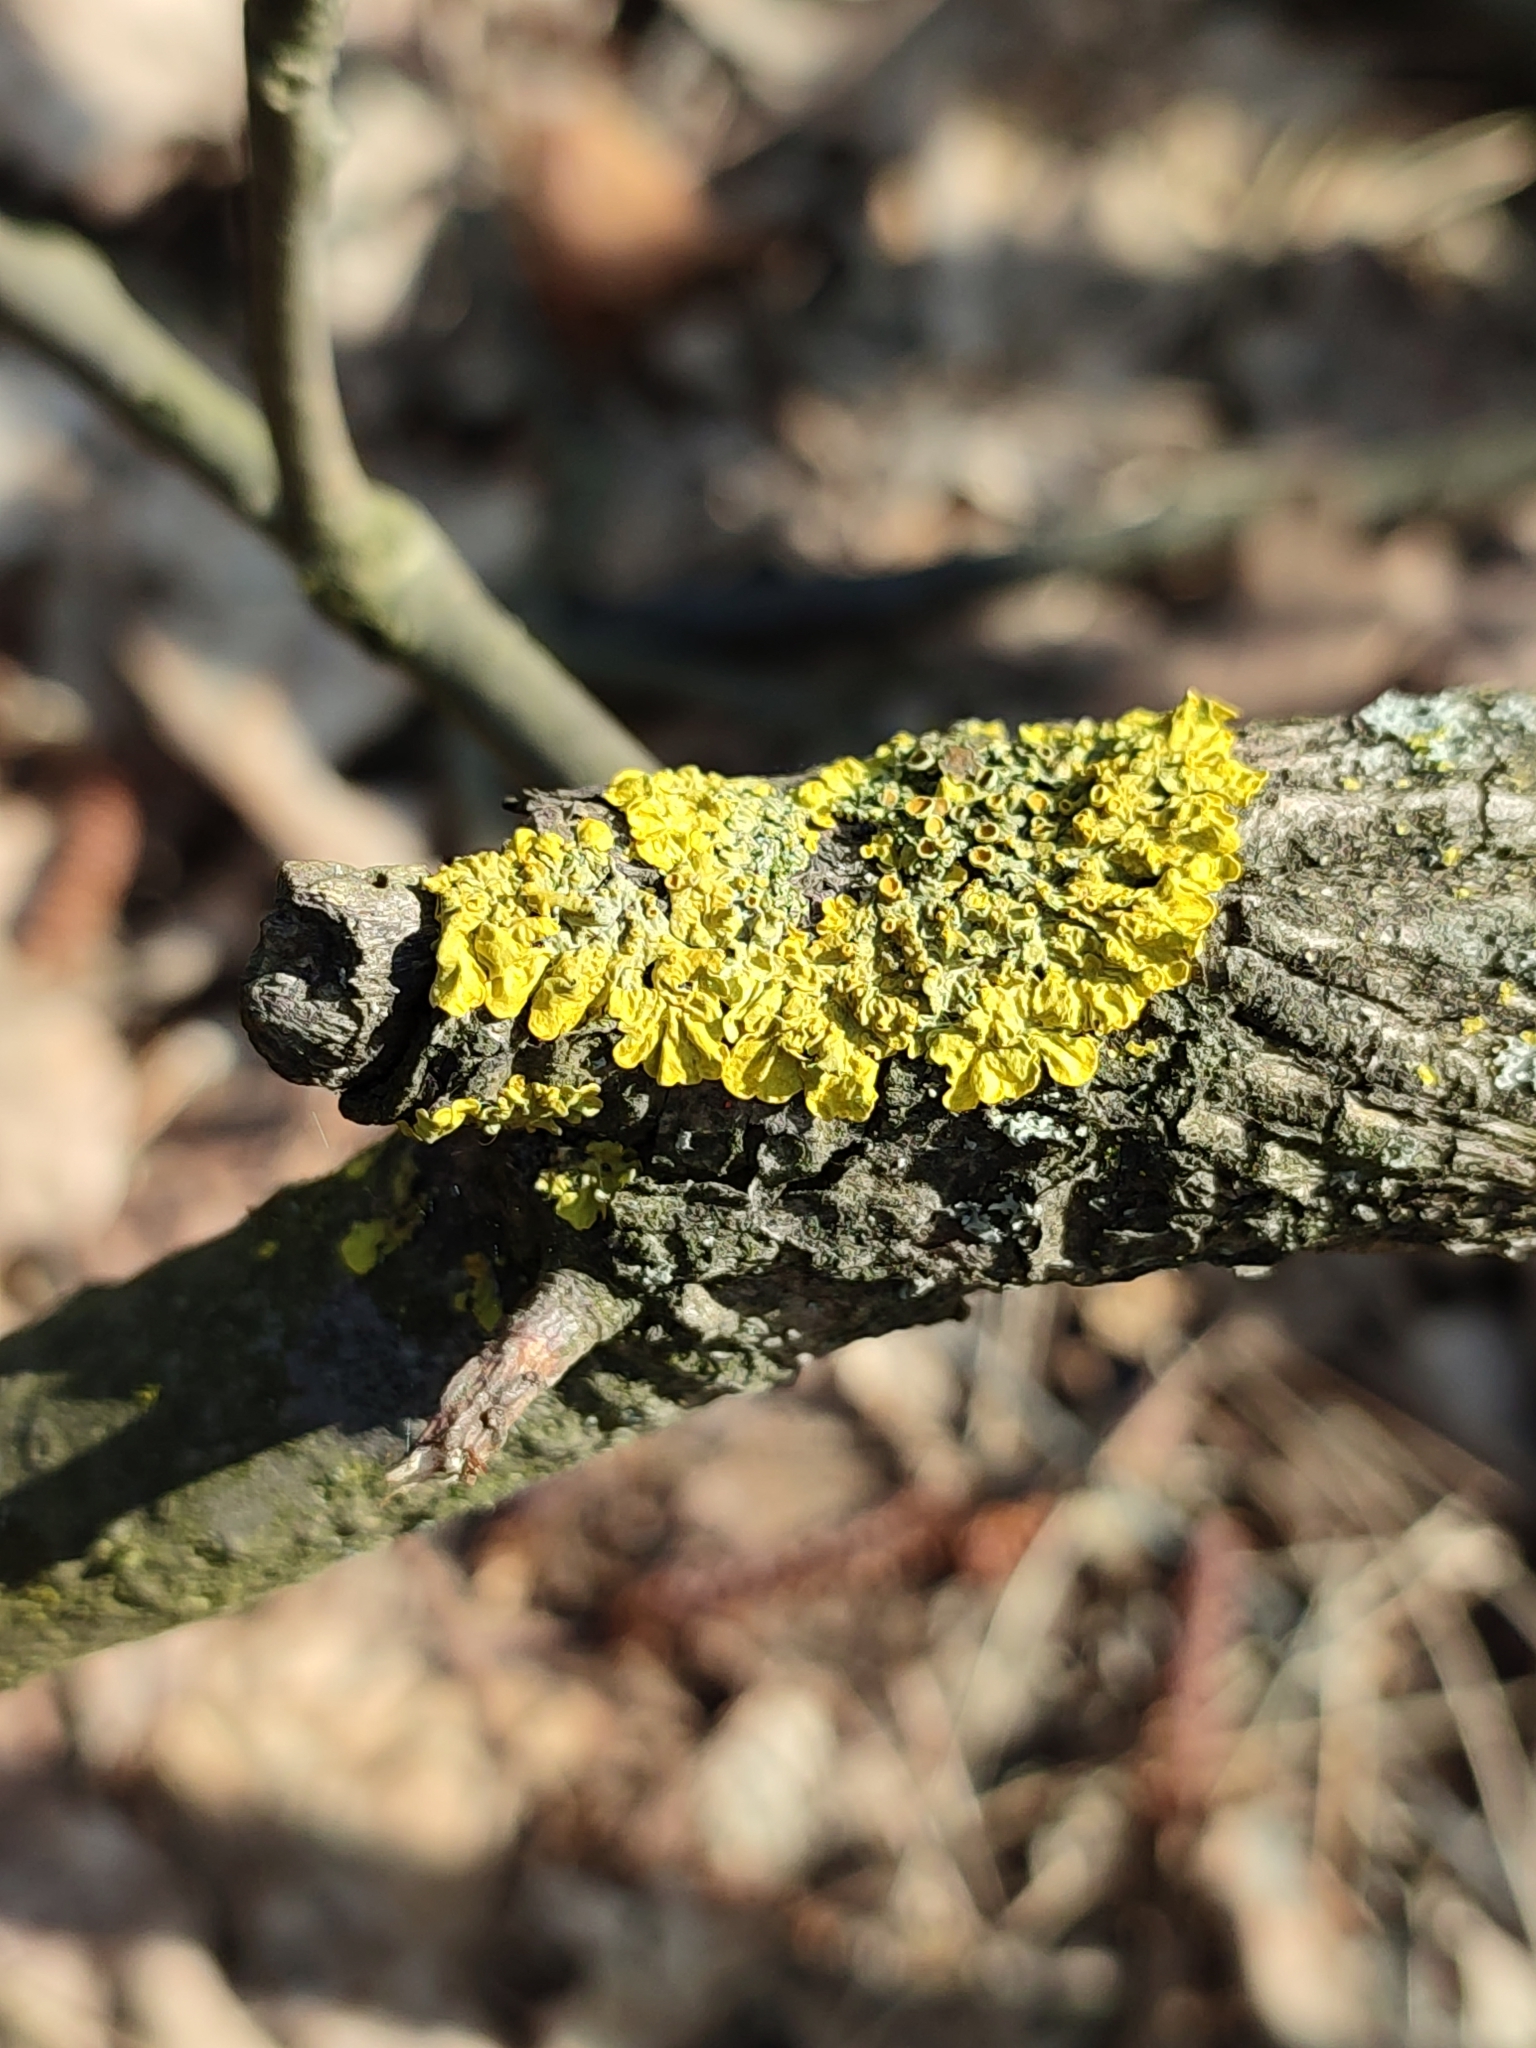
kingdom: Fungi
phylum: Ascomycota
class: Lecanoromycetes
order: Teloschistales
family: Teloschistaceae
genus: Xanthoria
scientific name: Xanthoria parietina
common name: Common orange lichen
